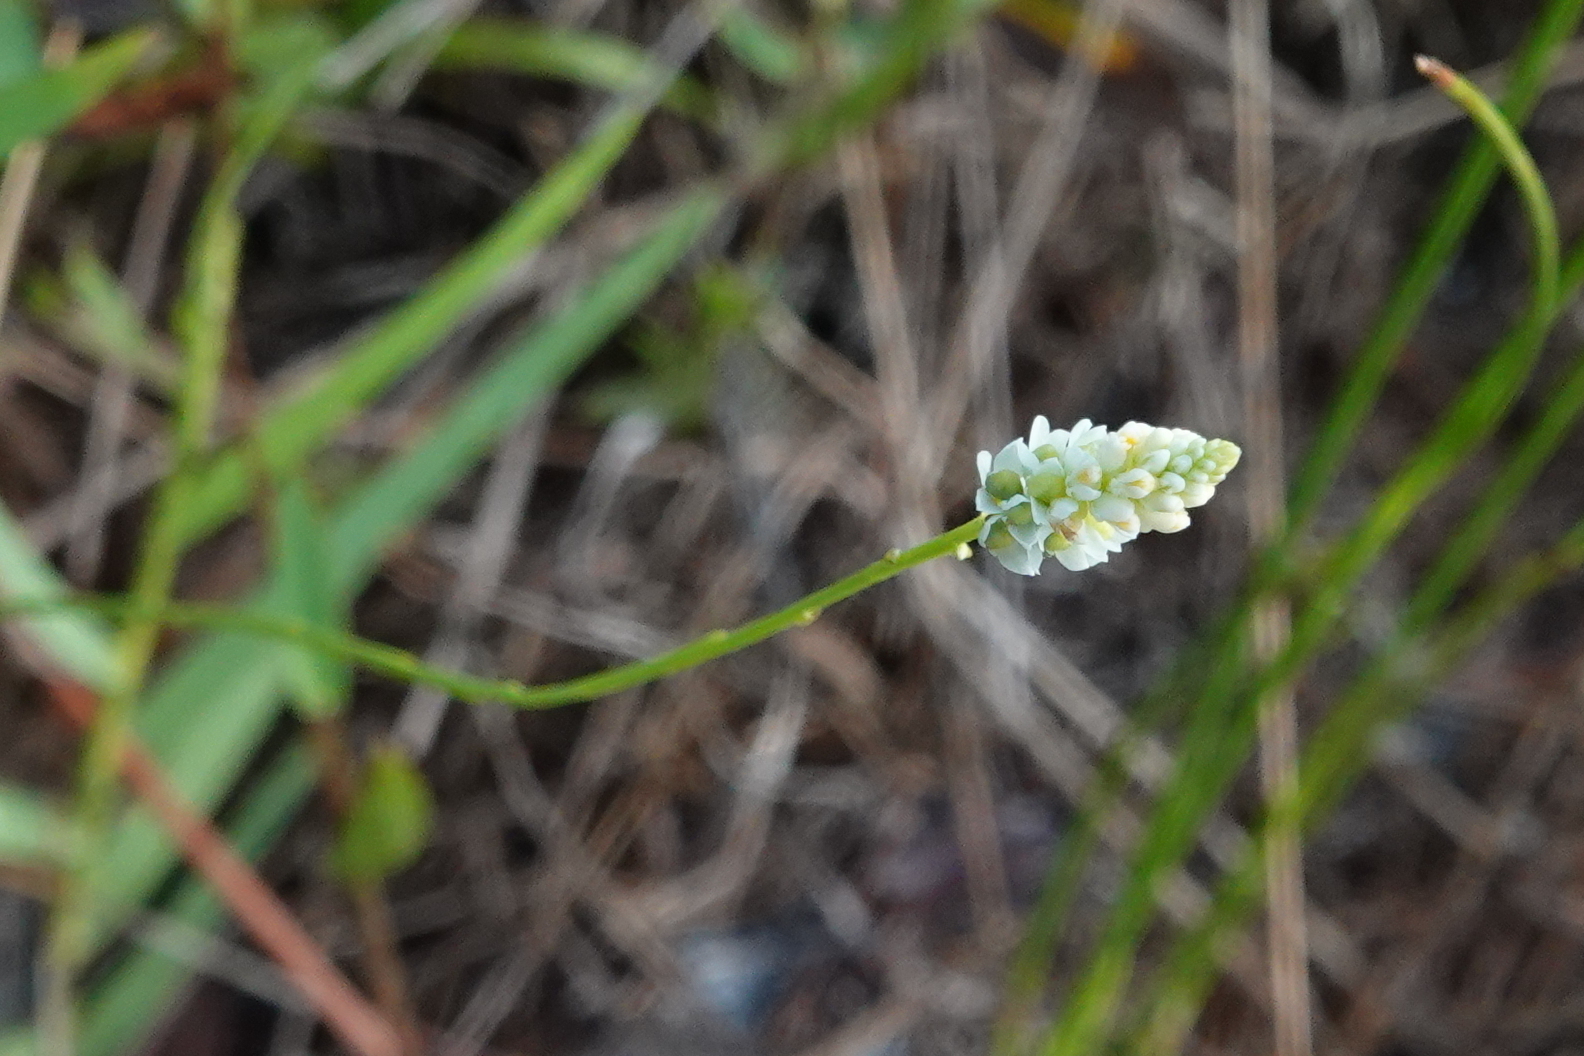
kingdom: Plantae
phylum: Tracheophyta
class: Magnoliopsida
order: Fabales
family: Polygalaceae
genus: Polygala
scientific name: Polygala setacea
